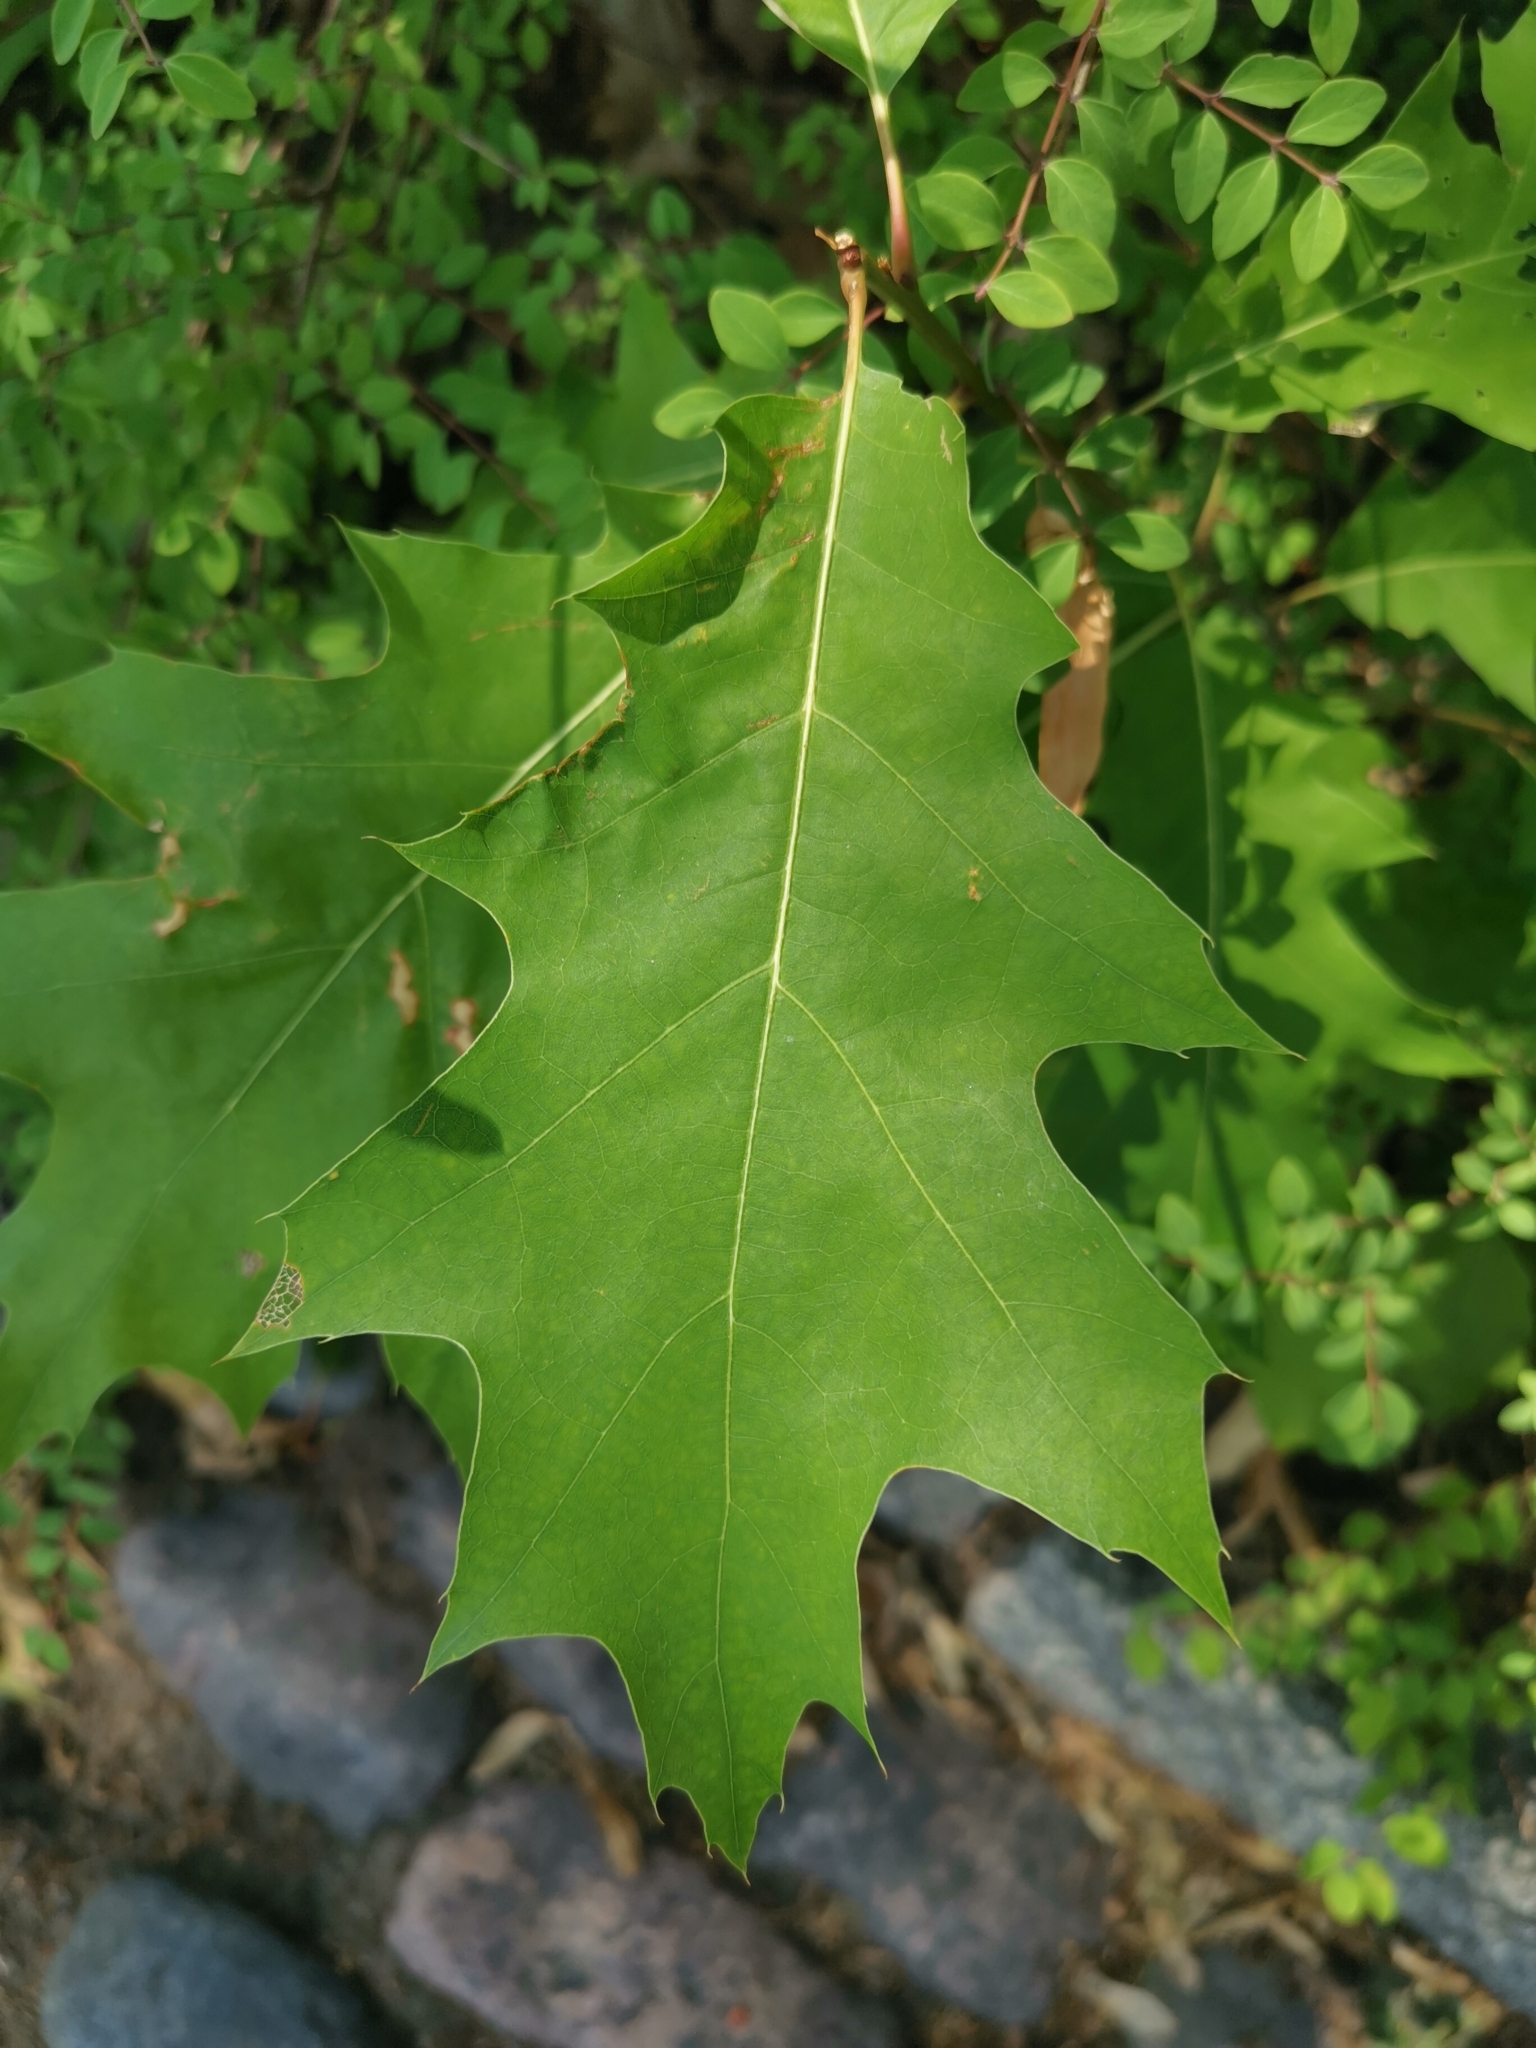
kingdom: Plantae
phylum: Tracheophyta
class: Magnoliopsida
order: Fagales
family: Fagaceae
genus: Quercus
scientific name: Quercus rubra
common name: Red oak
